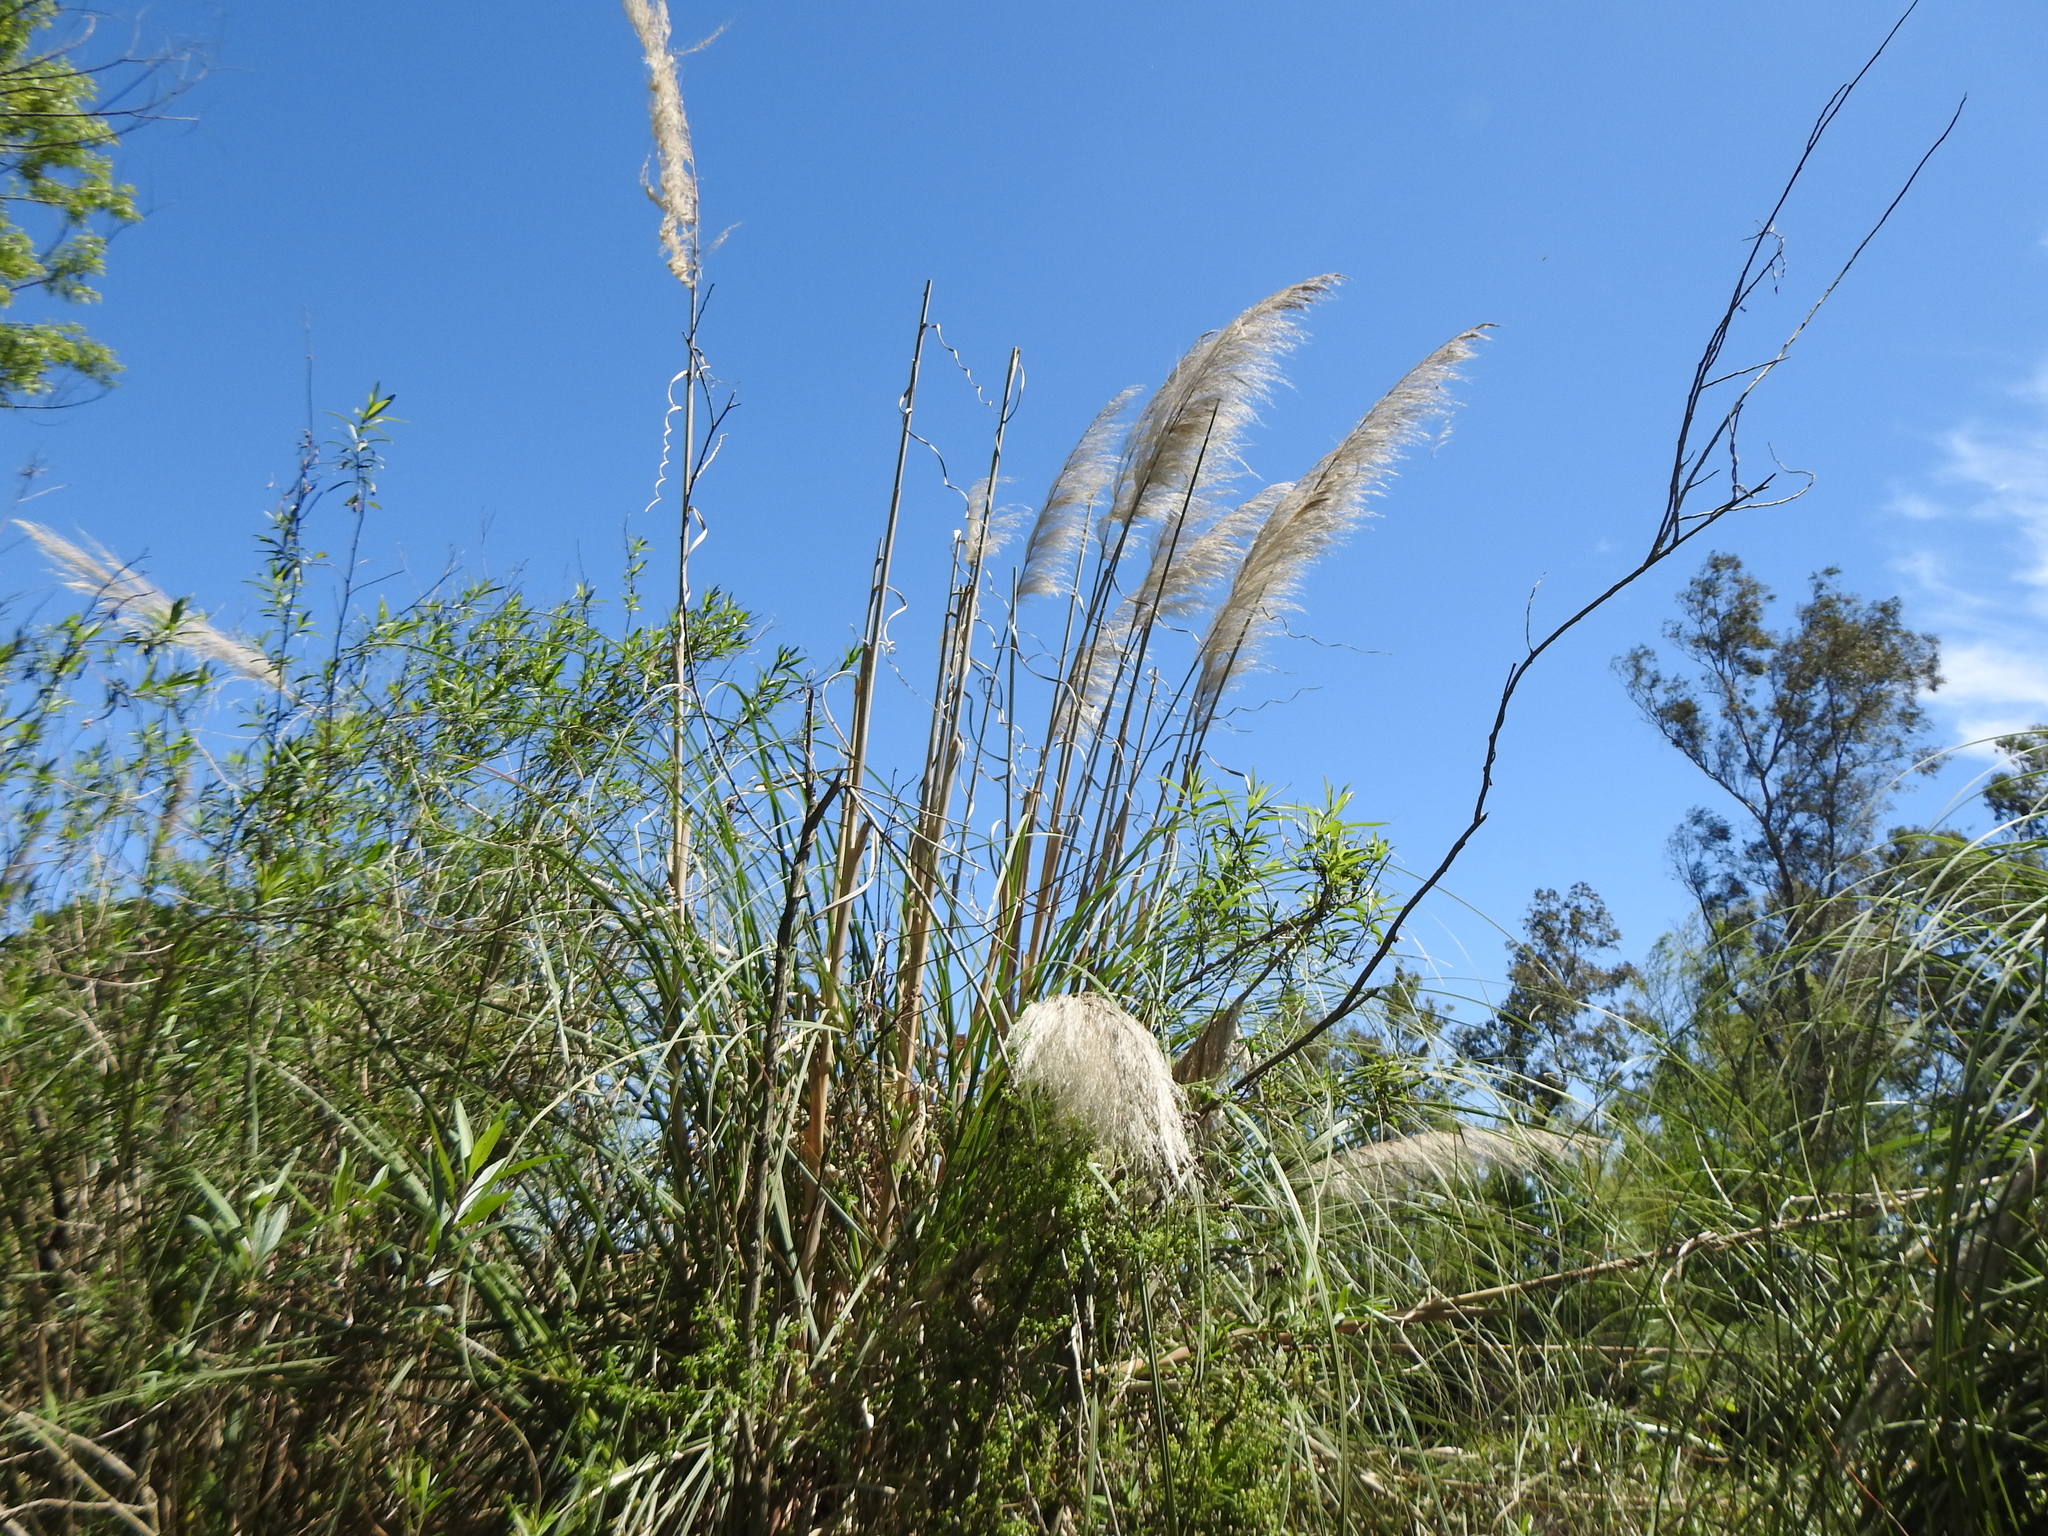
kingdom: Plantae
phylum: Tracheophyta
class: Liliopsida
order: Poales
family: Poaceae
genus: Cortaderia
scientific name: Cortaderia selloana
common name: Uruguayan pampas grass
